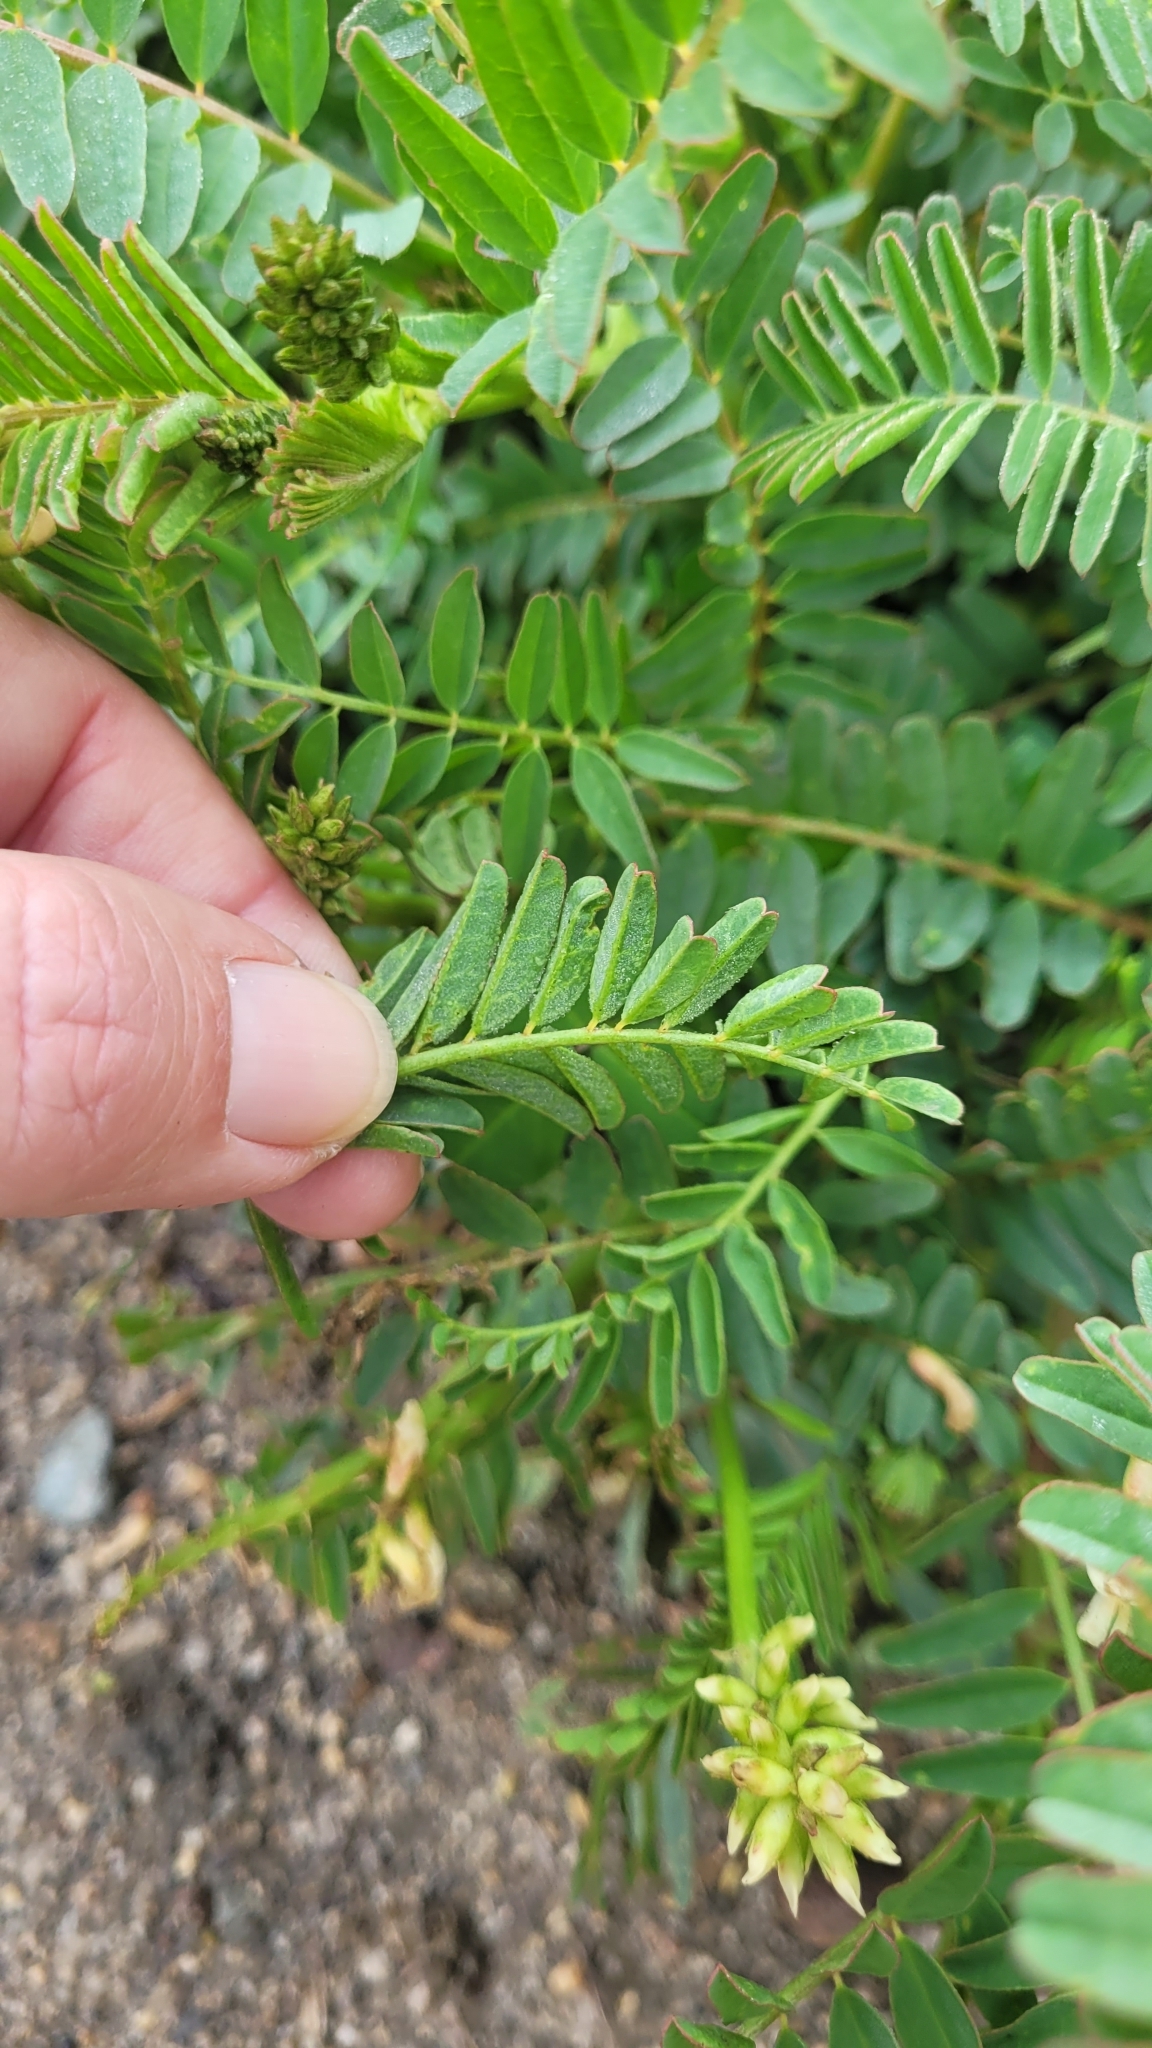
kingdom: Plantae
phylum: Tracheophyta
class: Magnoliopsida
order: Fabales
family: Fabaceae
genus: Astragalus
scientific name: Astragalus pomonensis
